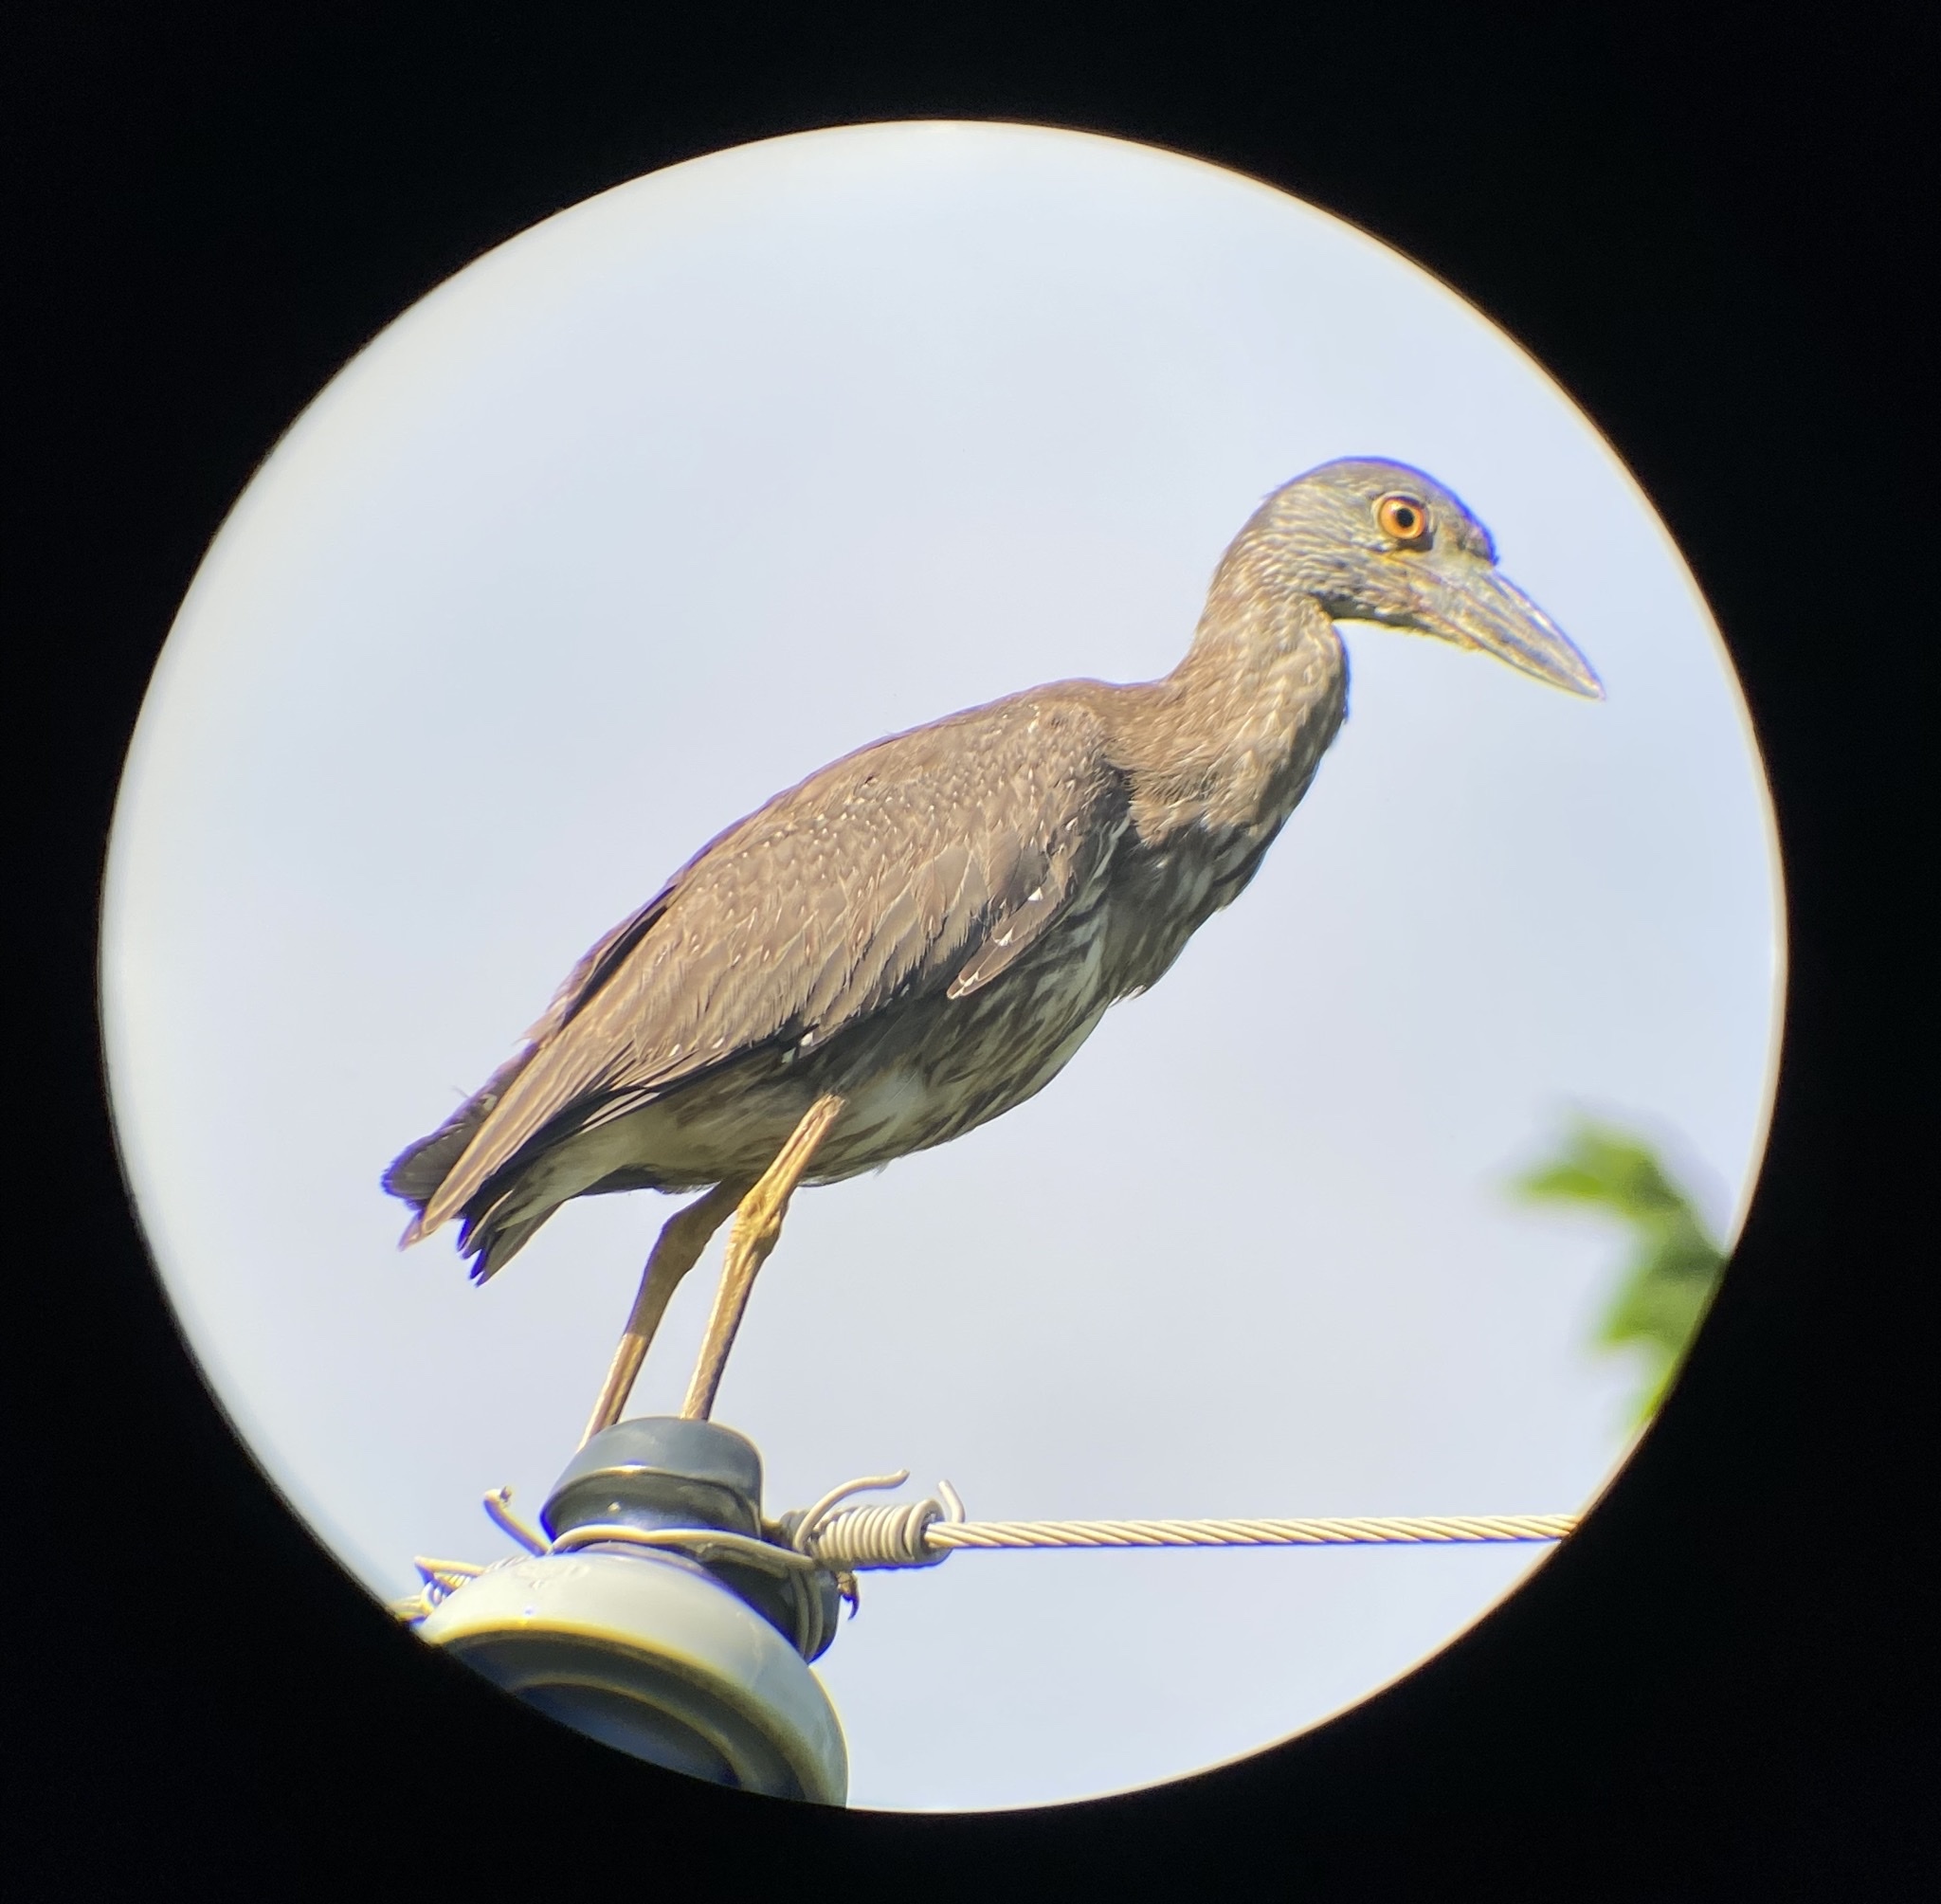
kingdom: Animalia
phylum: Chordata
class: Aves
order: Pelecaniformes
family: Ardeidae
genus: Nyctanassa
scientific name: Nyctanassa violacea
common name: Yellow-crowned night heron
